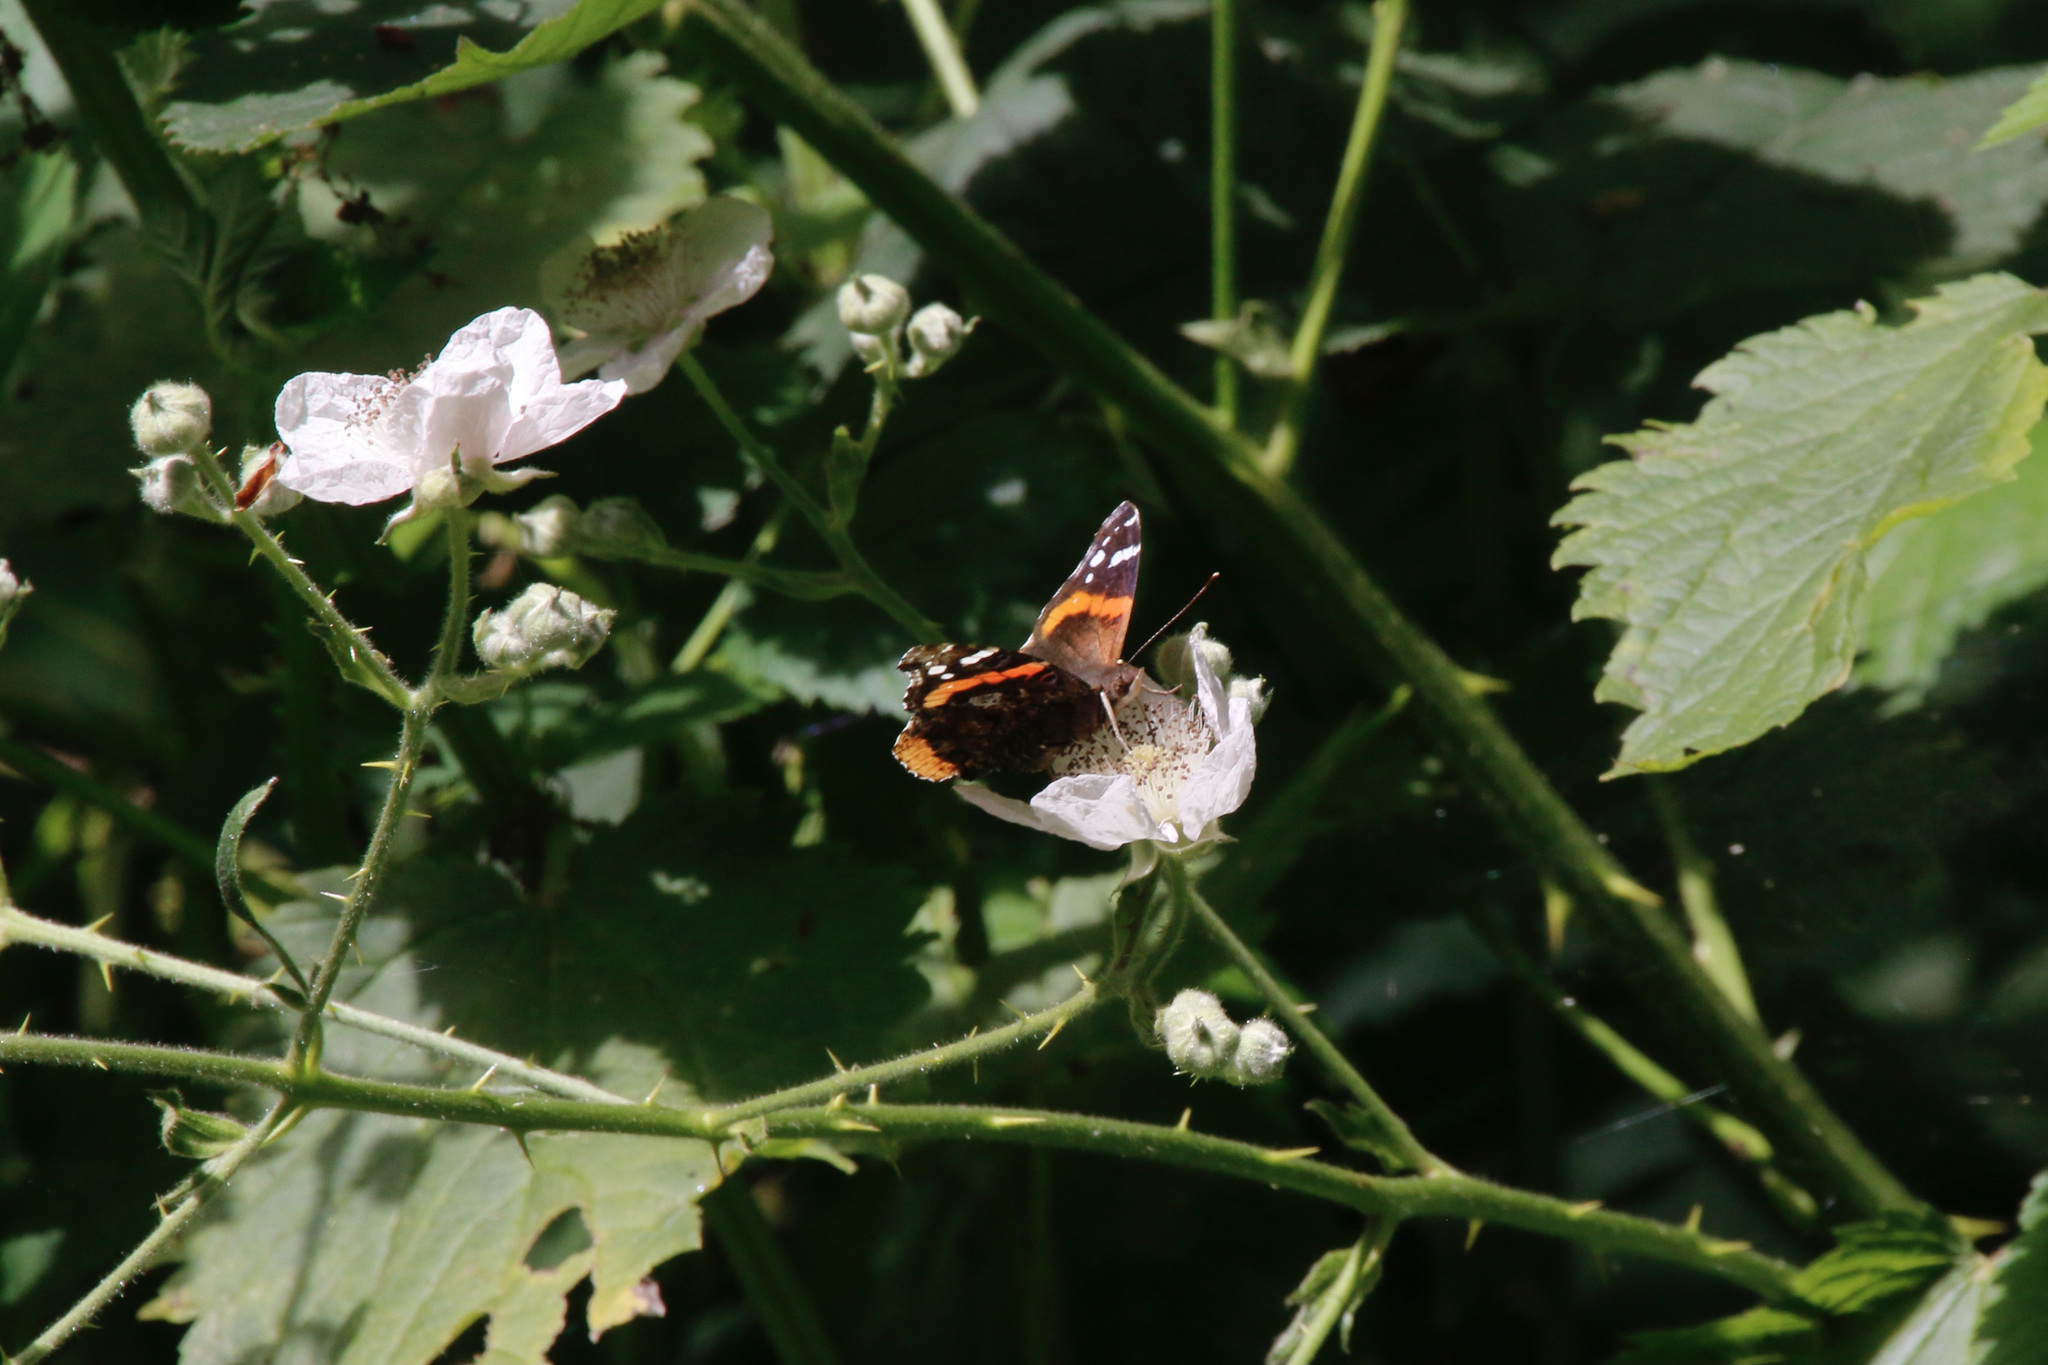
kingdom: Animalia
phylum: Arthropoda
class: Insecta
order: Lepidoptera
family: Nymphalidae
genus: Vanessa
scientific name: Vanessa atalanta
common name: Red admiral
